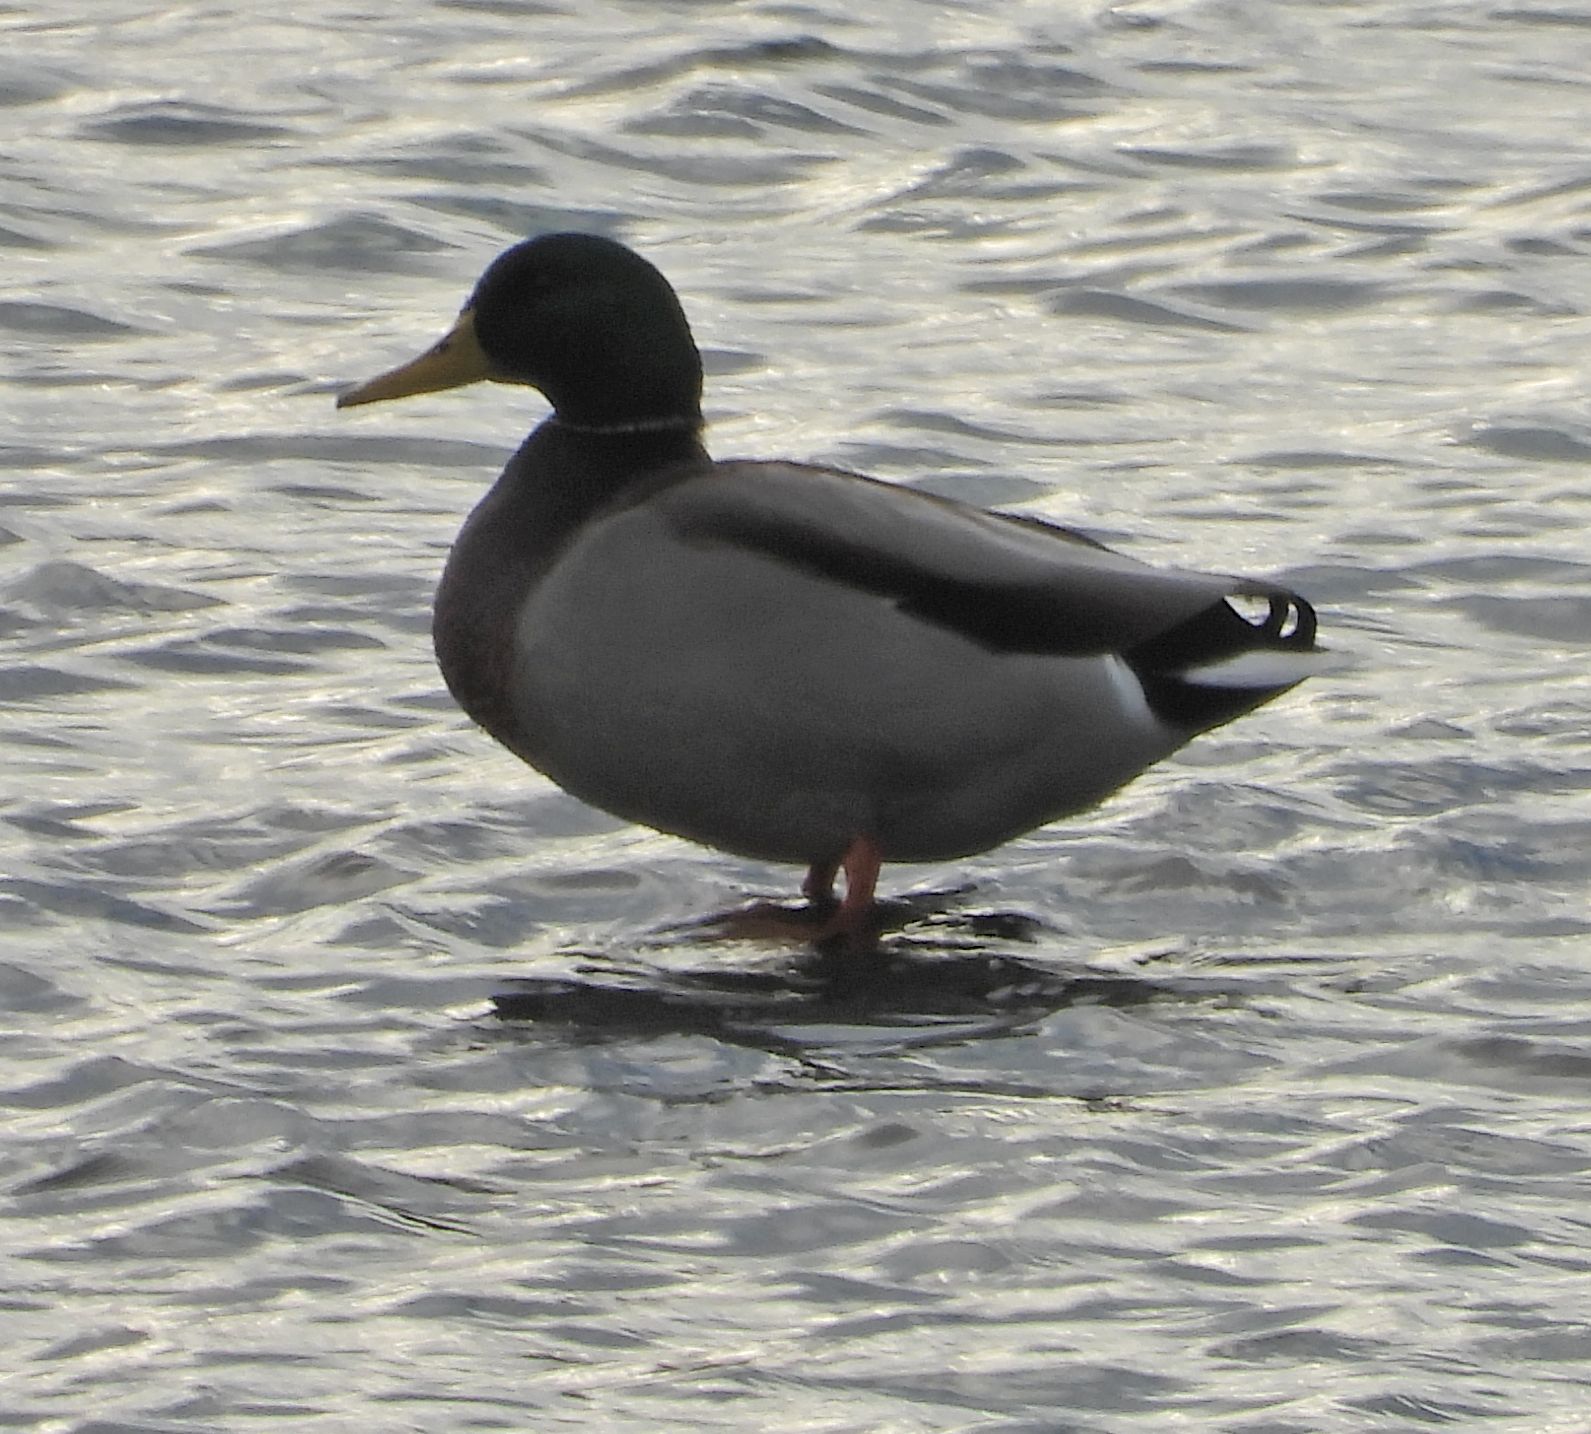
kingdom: Animalia
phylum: Chordata
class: Aves
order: Anseriformes
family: Anatidae
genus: Anas
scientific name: Anas platyrhynchos
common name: Mallard
